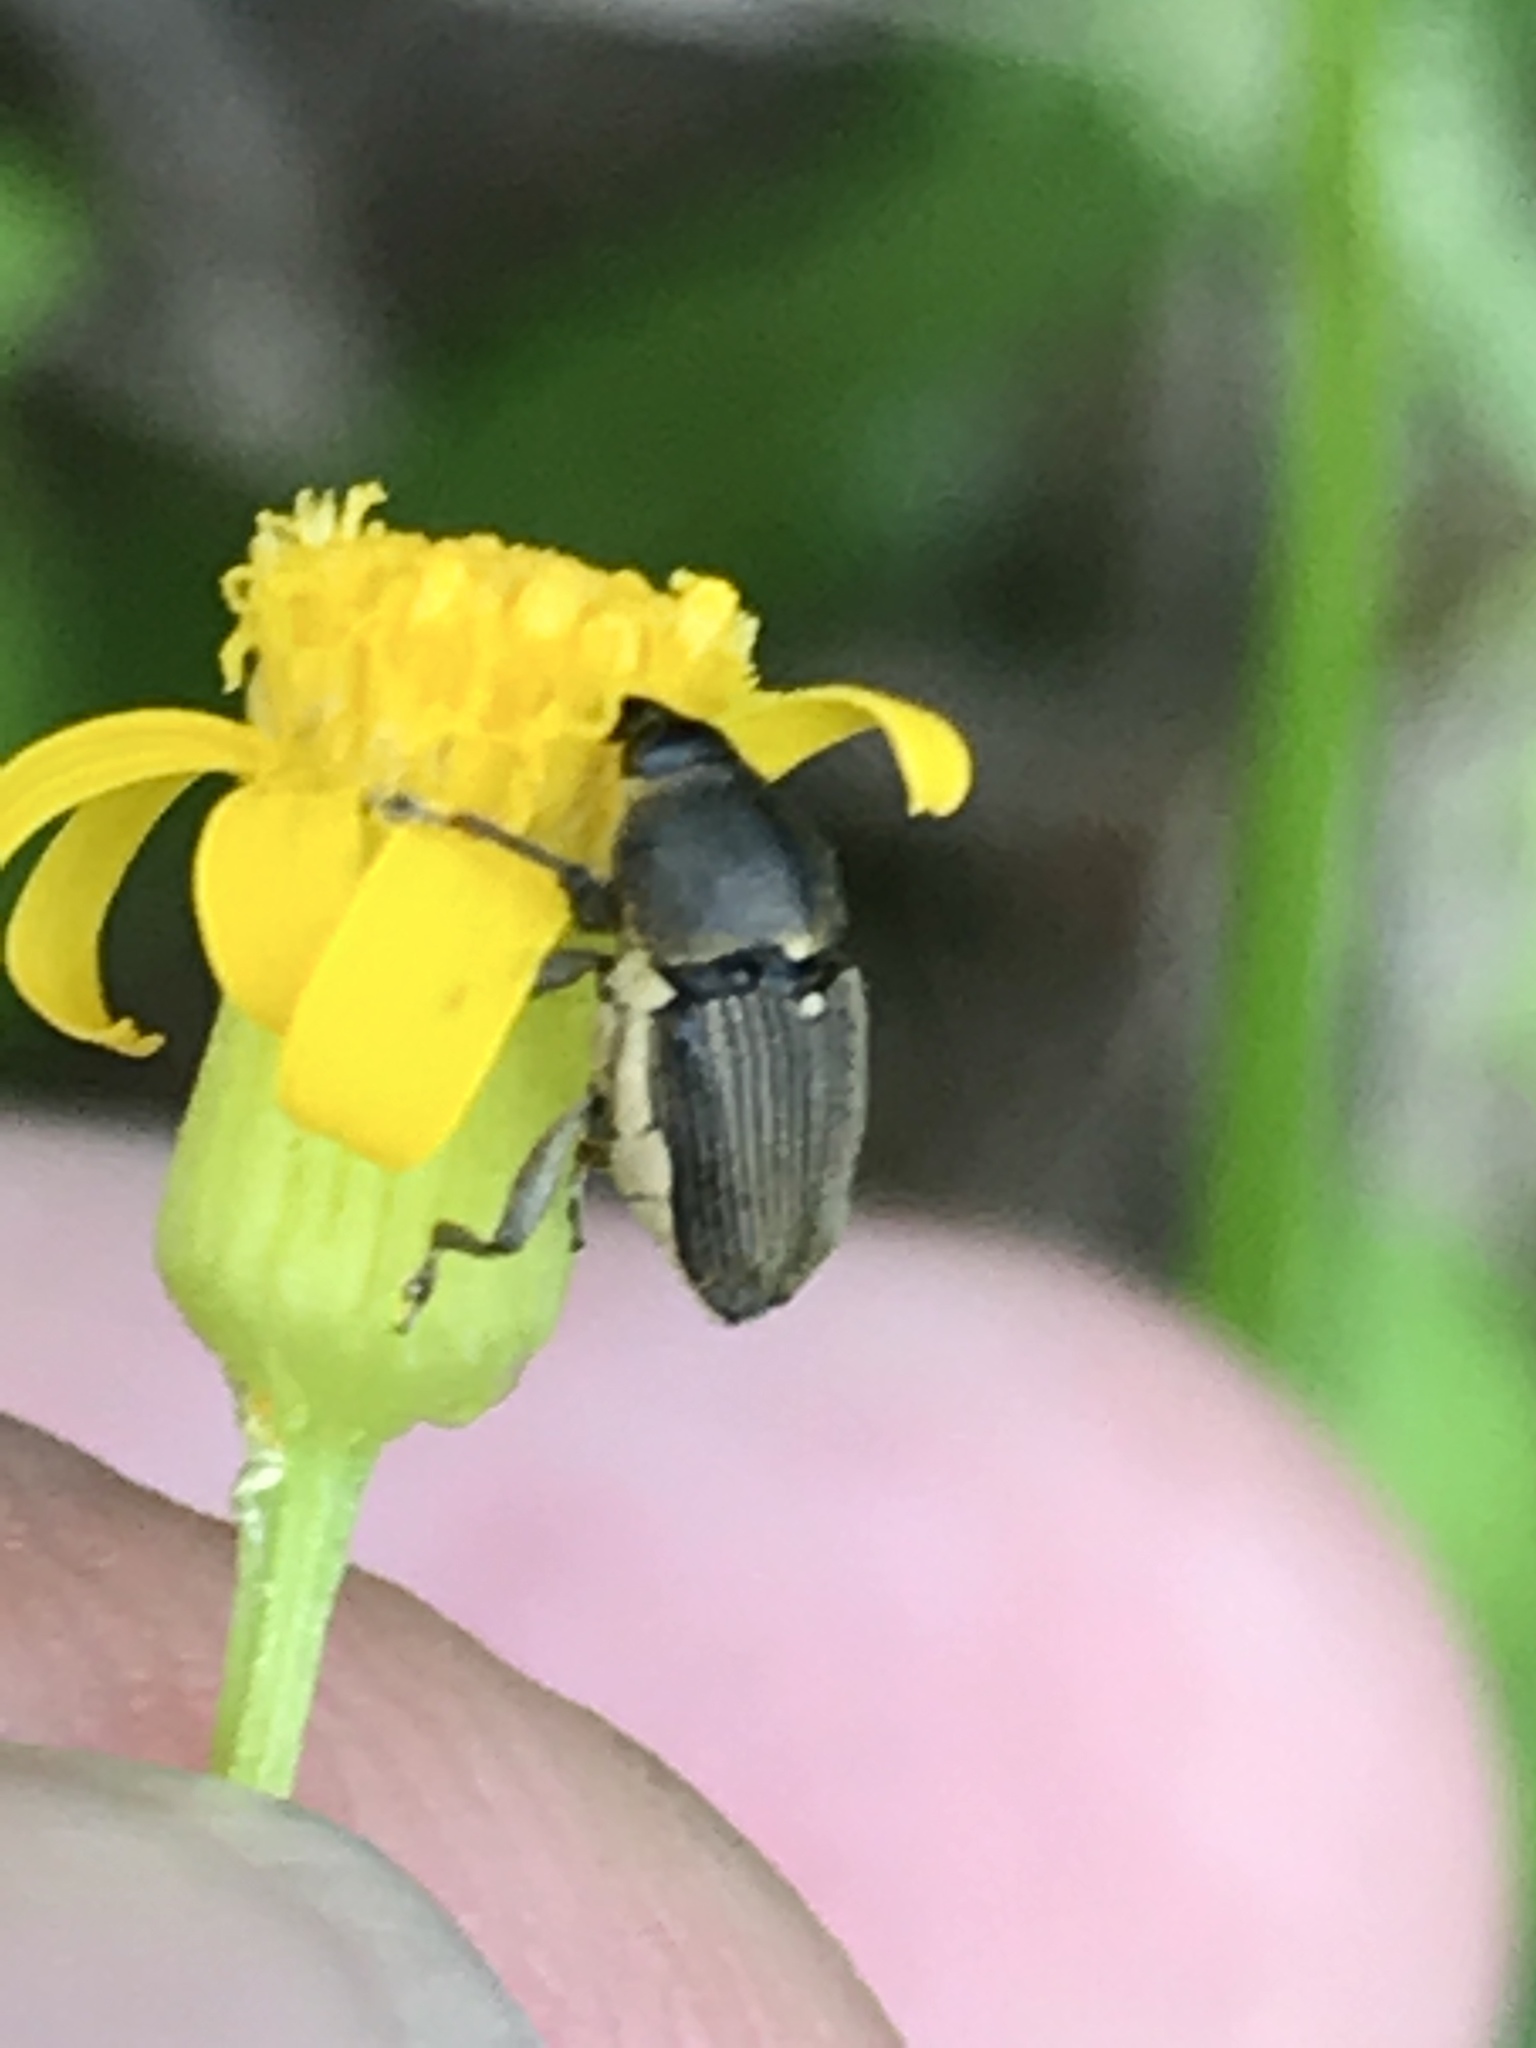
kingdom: Animalia
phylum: Arthropoda
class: Insecta
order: Coleoptera
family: Curculionidae
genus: Odontocorynus
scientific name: Odontocorynus salebrosus
